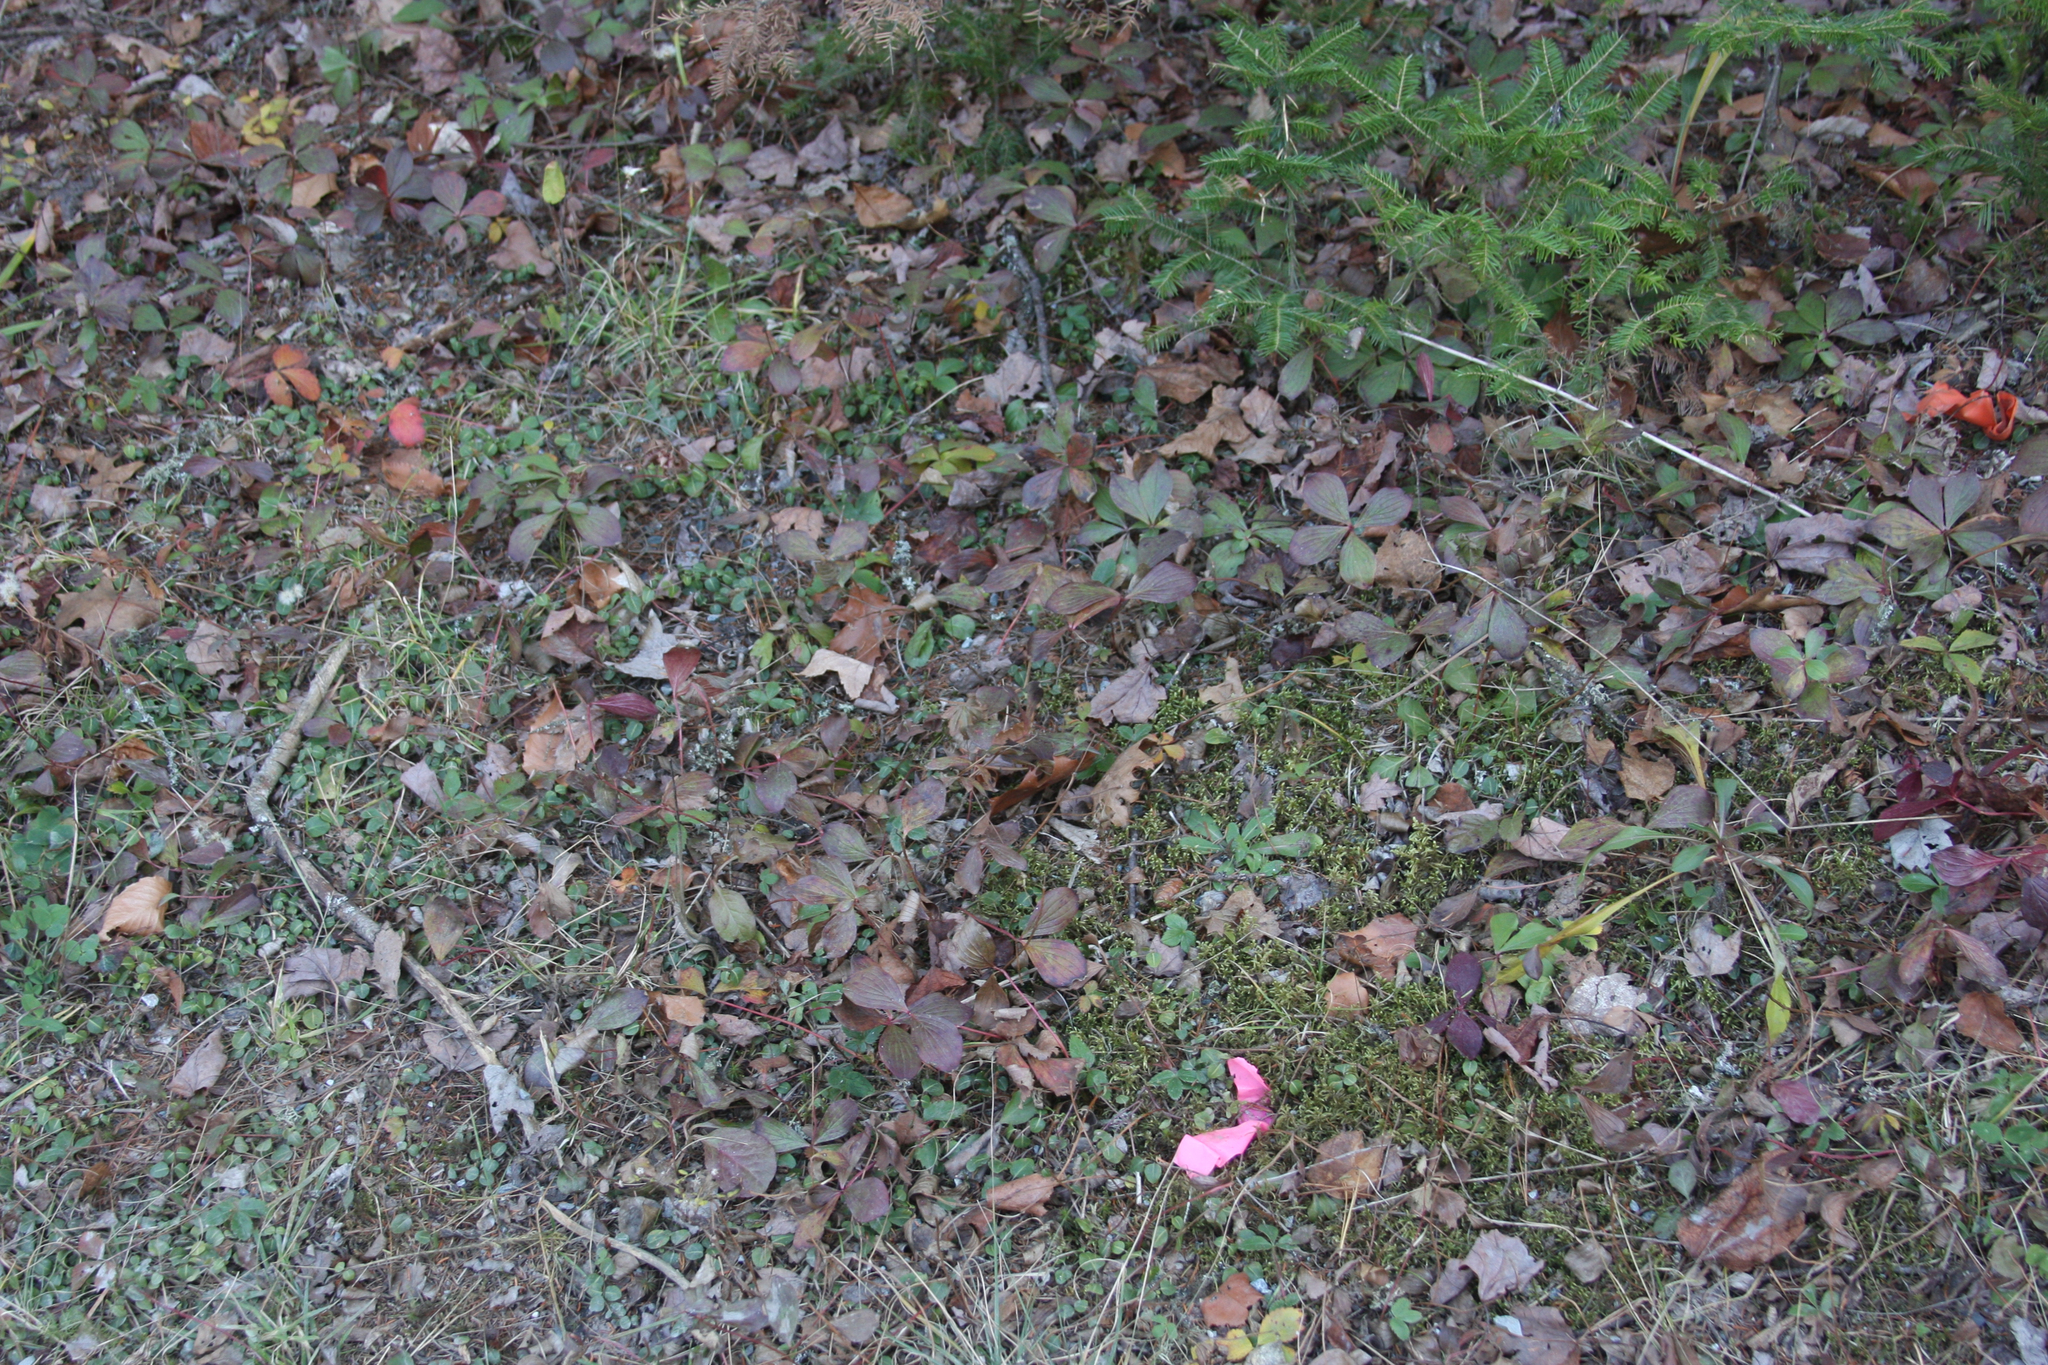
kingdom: Plantae
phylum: Tracheophyta
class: Magnoliopsida
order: Cornales
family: Cornaceae
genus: Cornus
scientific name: Cornus canadensis
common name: Creeping dogwood
